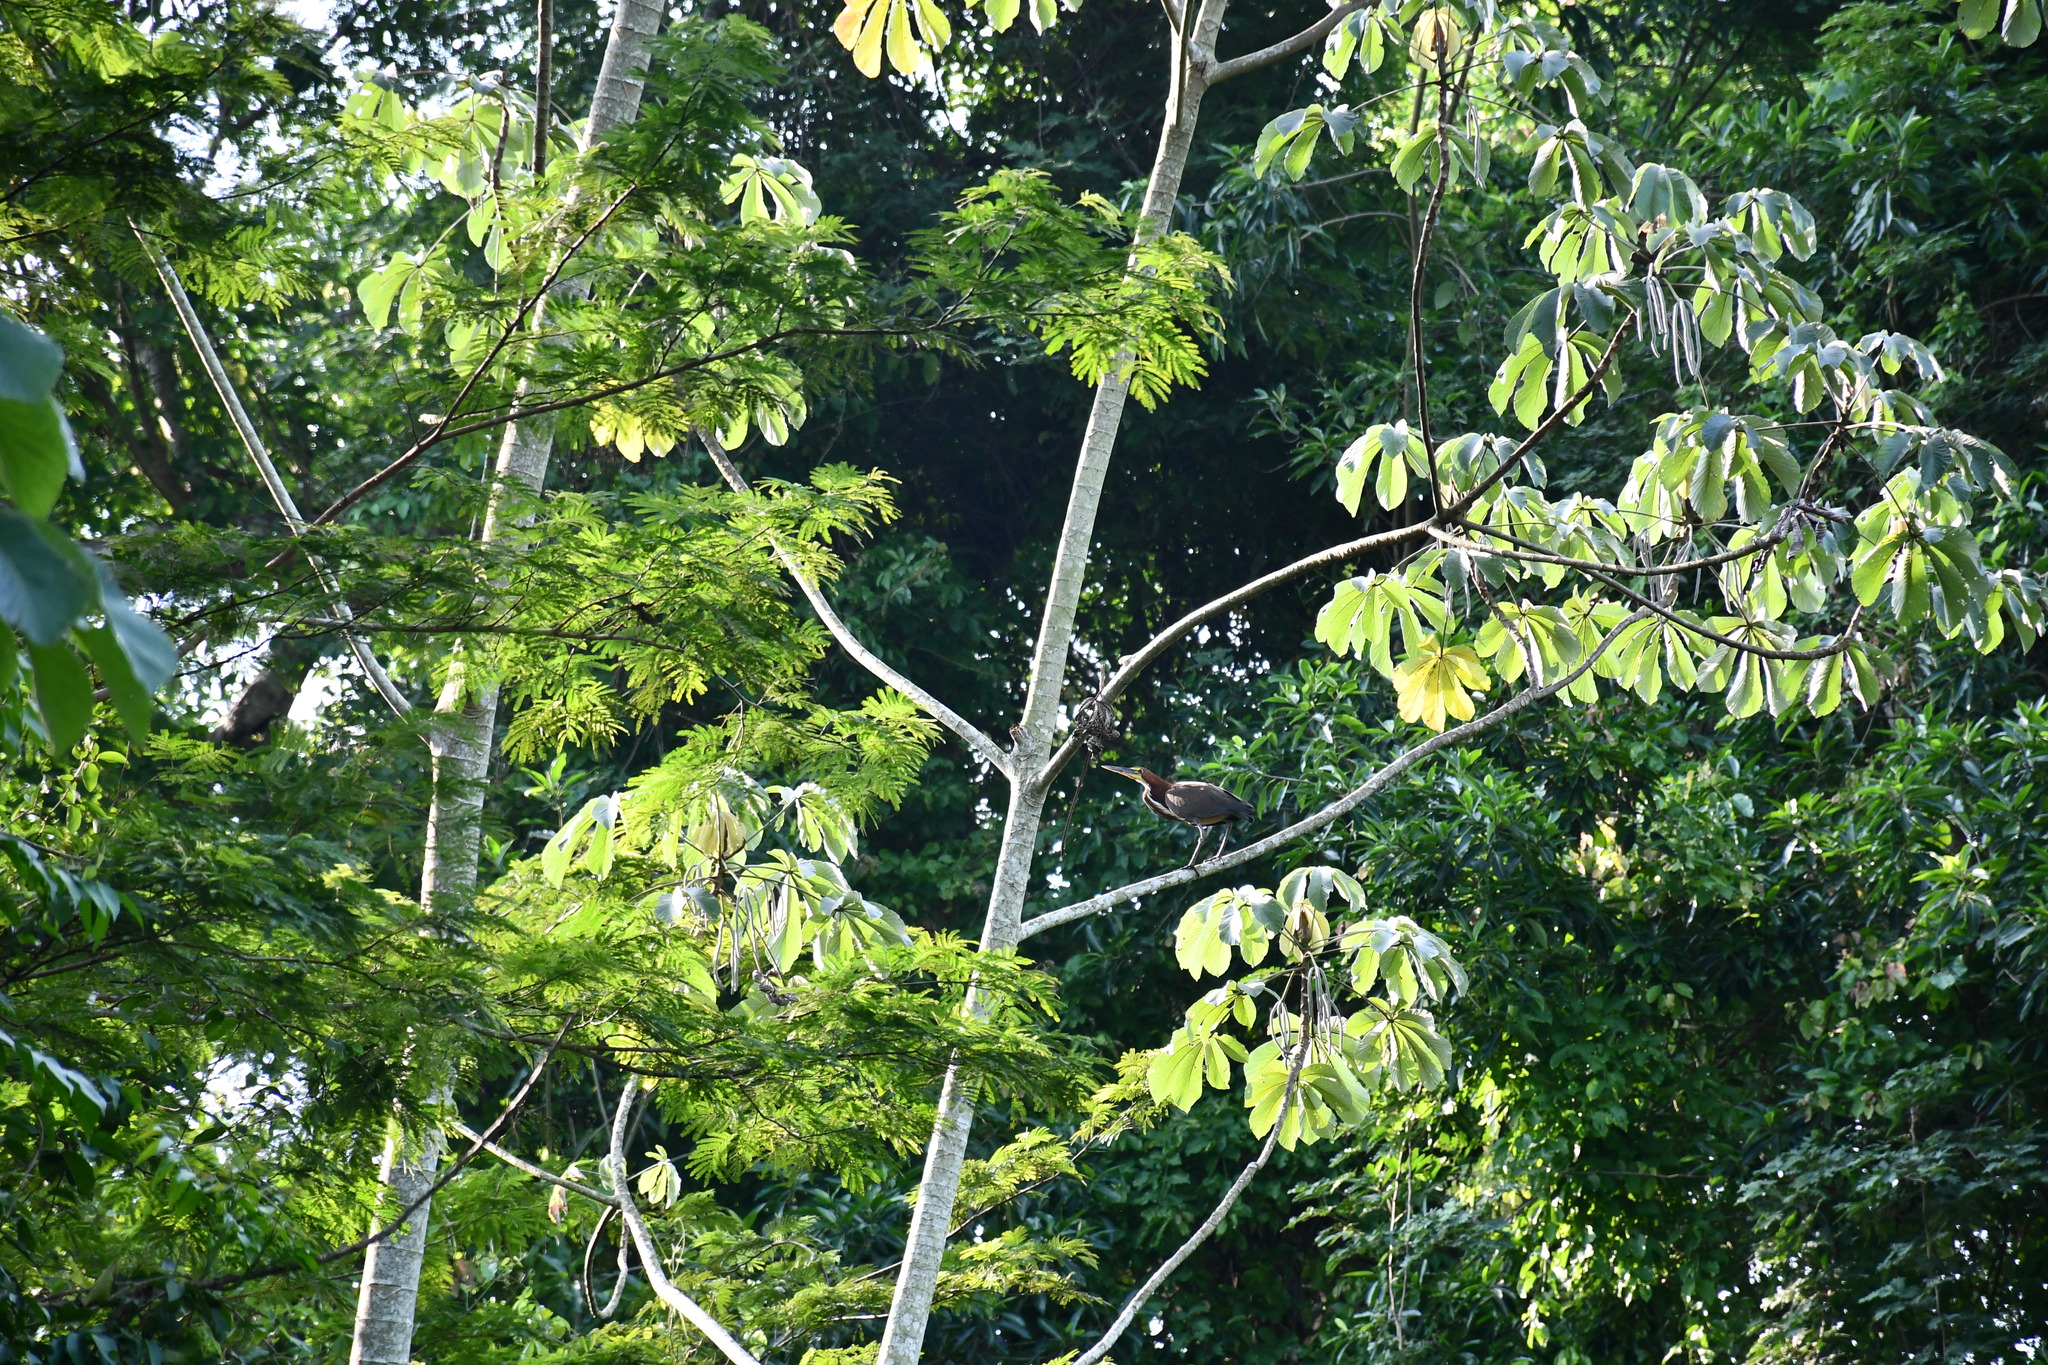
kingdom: Animalia
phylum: Chordata
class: Aves
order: Pelecaniformes
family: Ardeidae
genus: Tigrisoma
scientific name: Tigrisoma lineatum
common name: Rufescent tiger-heron
